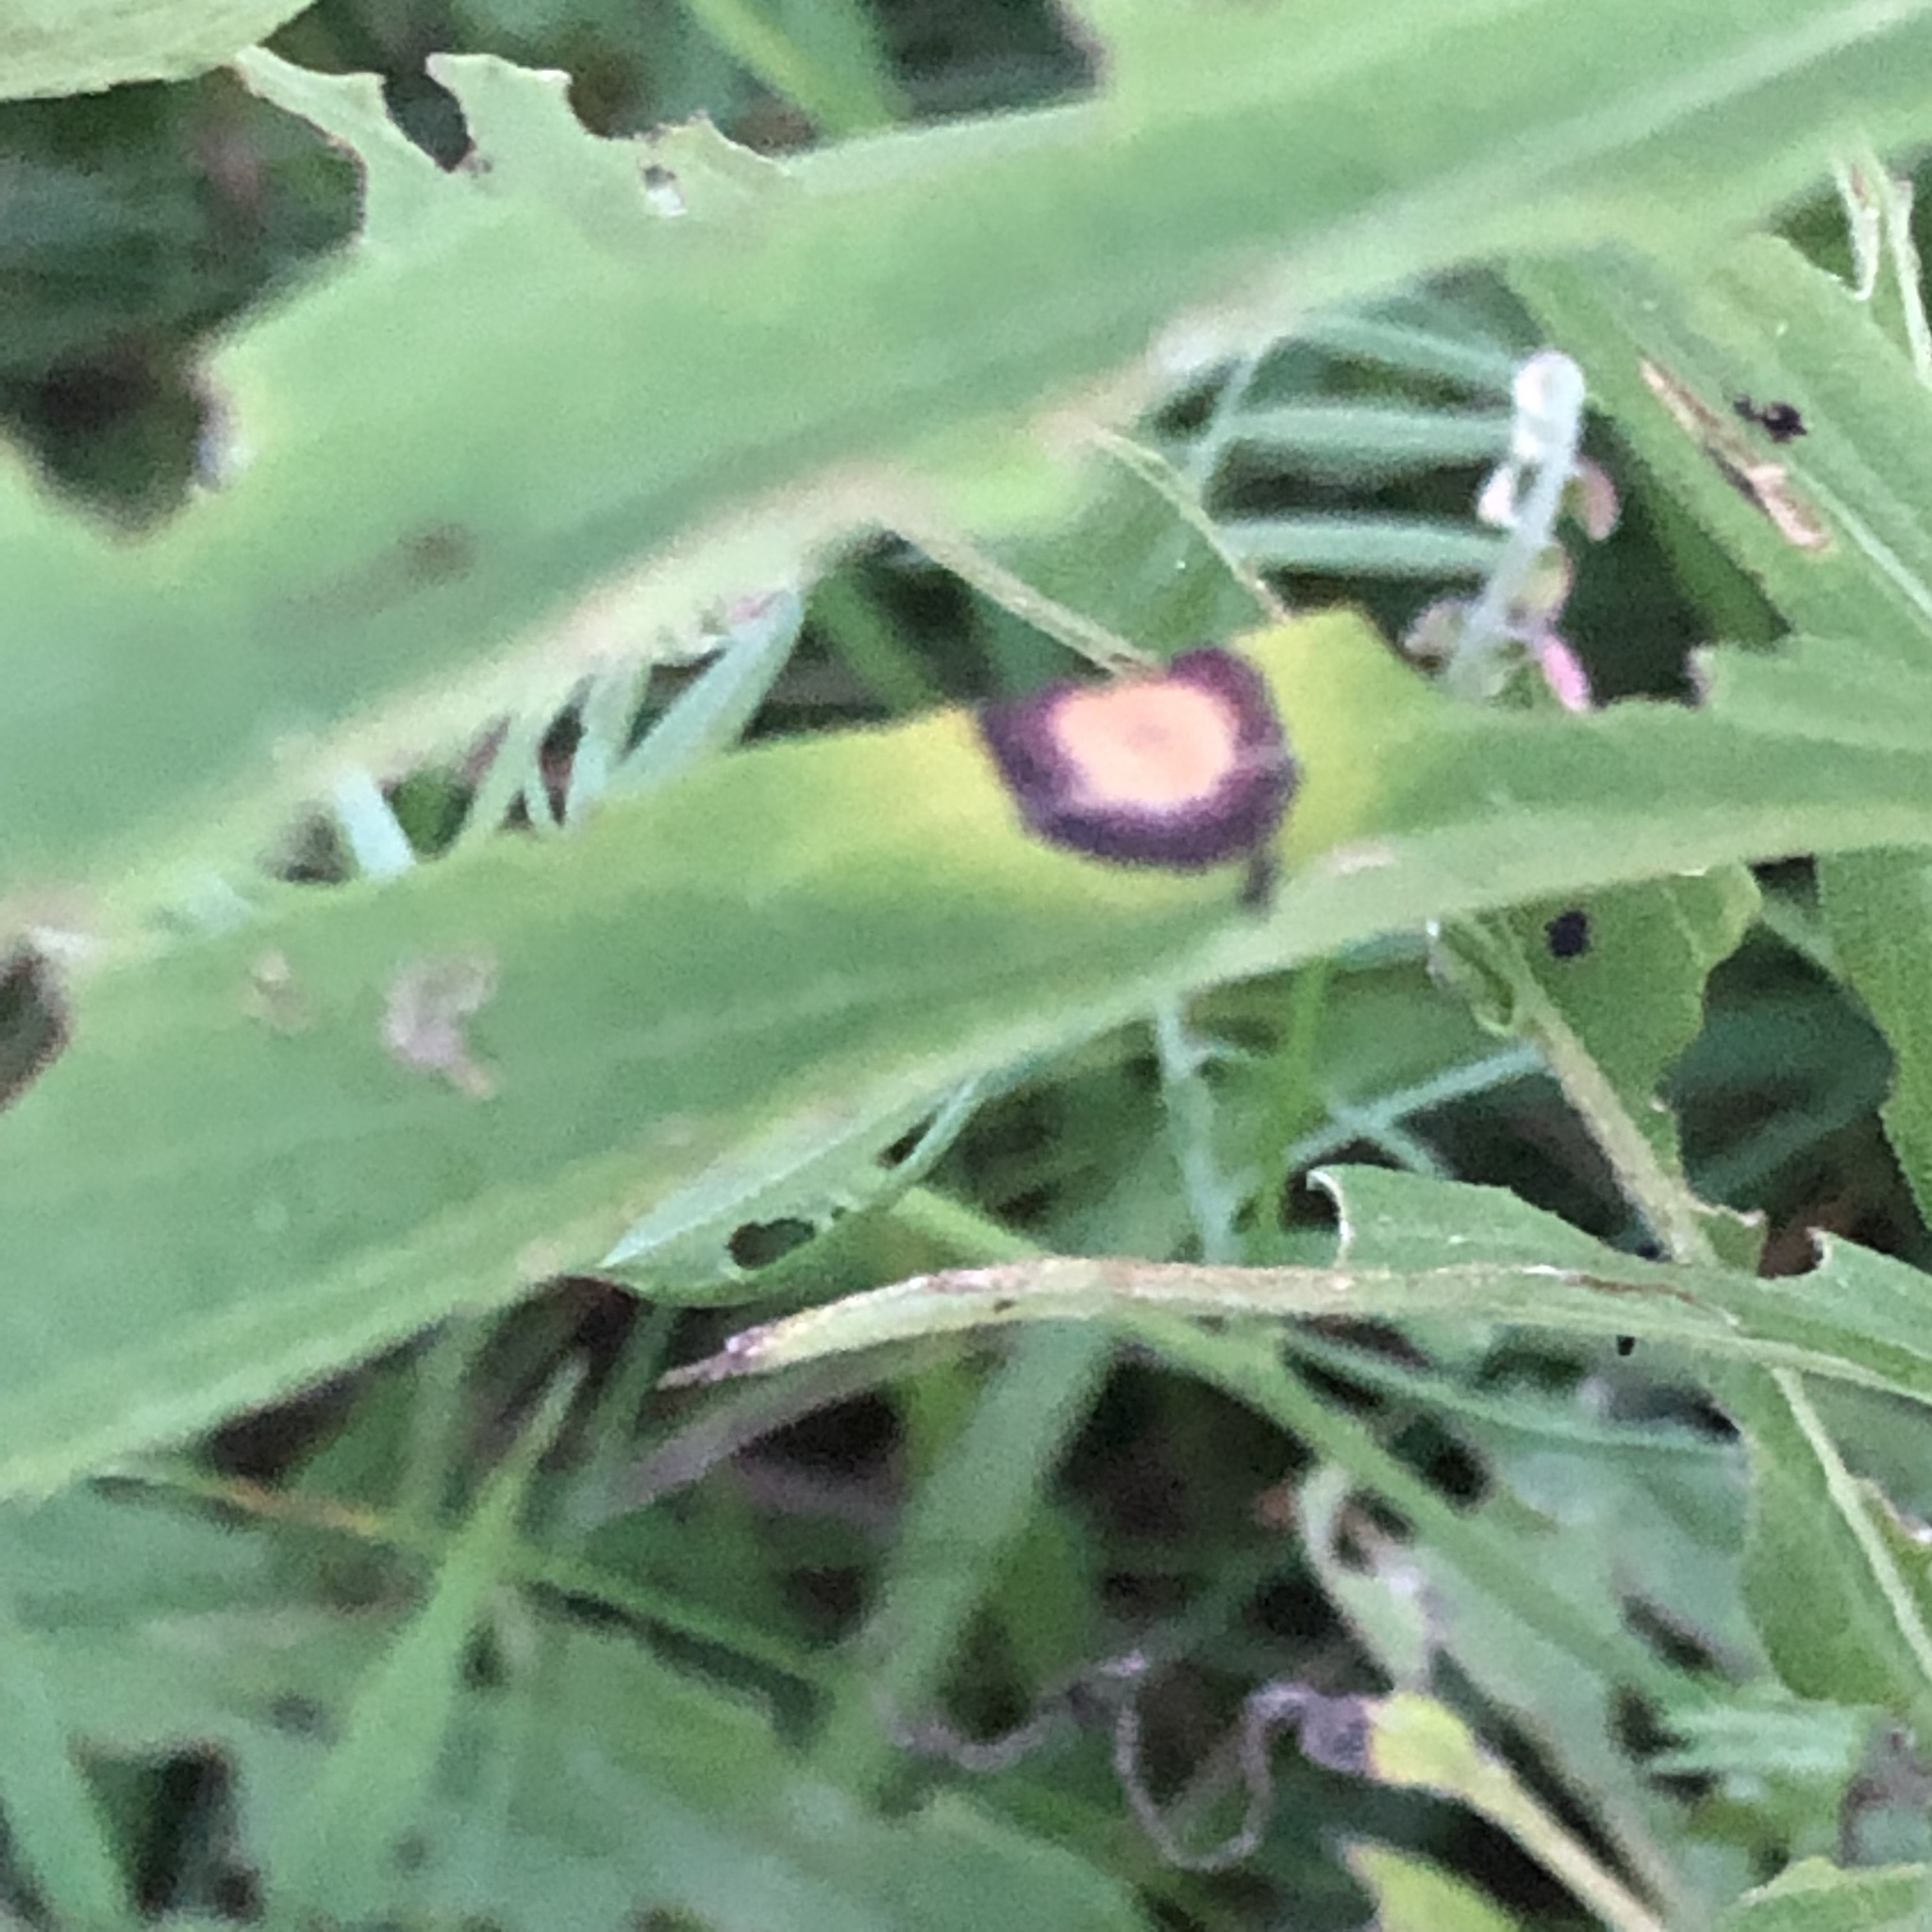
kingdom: Animalia
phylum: Arthropoda
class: Insecta
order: Diptera
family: Cecidomyiidae
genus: Asteromyia
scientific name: Asteromyia carbonifera
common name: Carbonifera goldenrod gall midge
